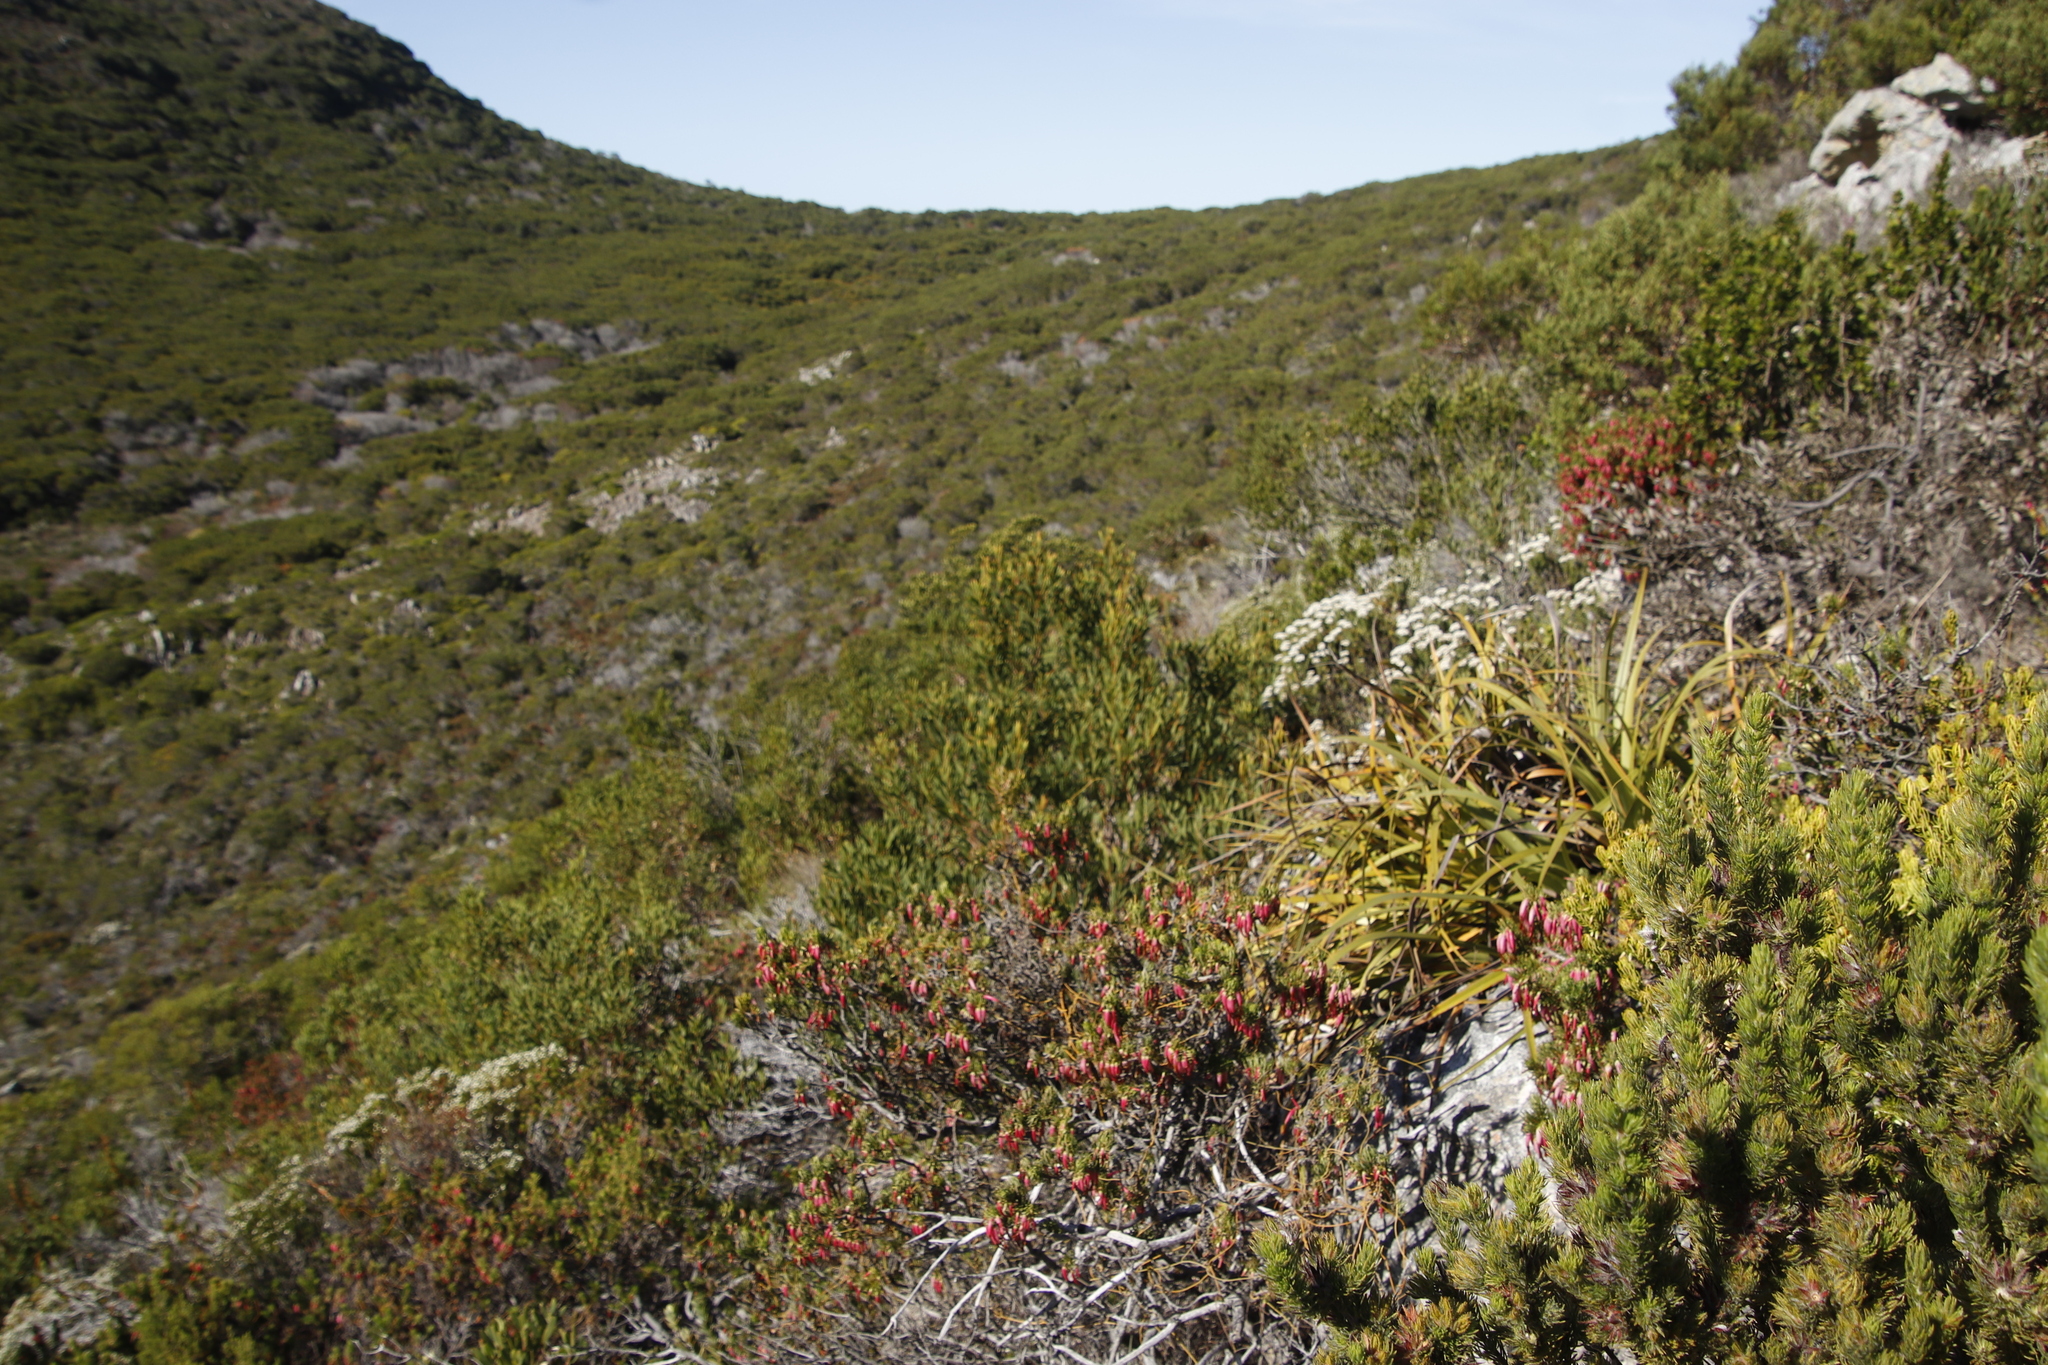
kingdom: Plantae
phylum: Tracheophyta
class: Magnoliopsida
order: Ericales
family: Ericaceae
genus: Erica
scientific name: Erica plukenetii
